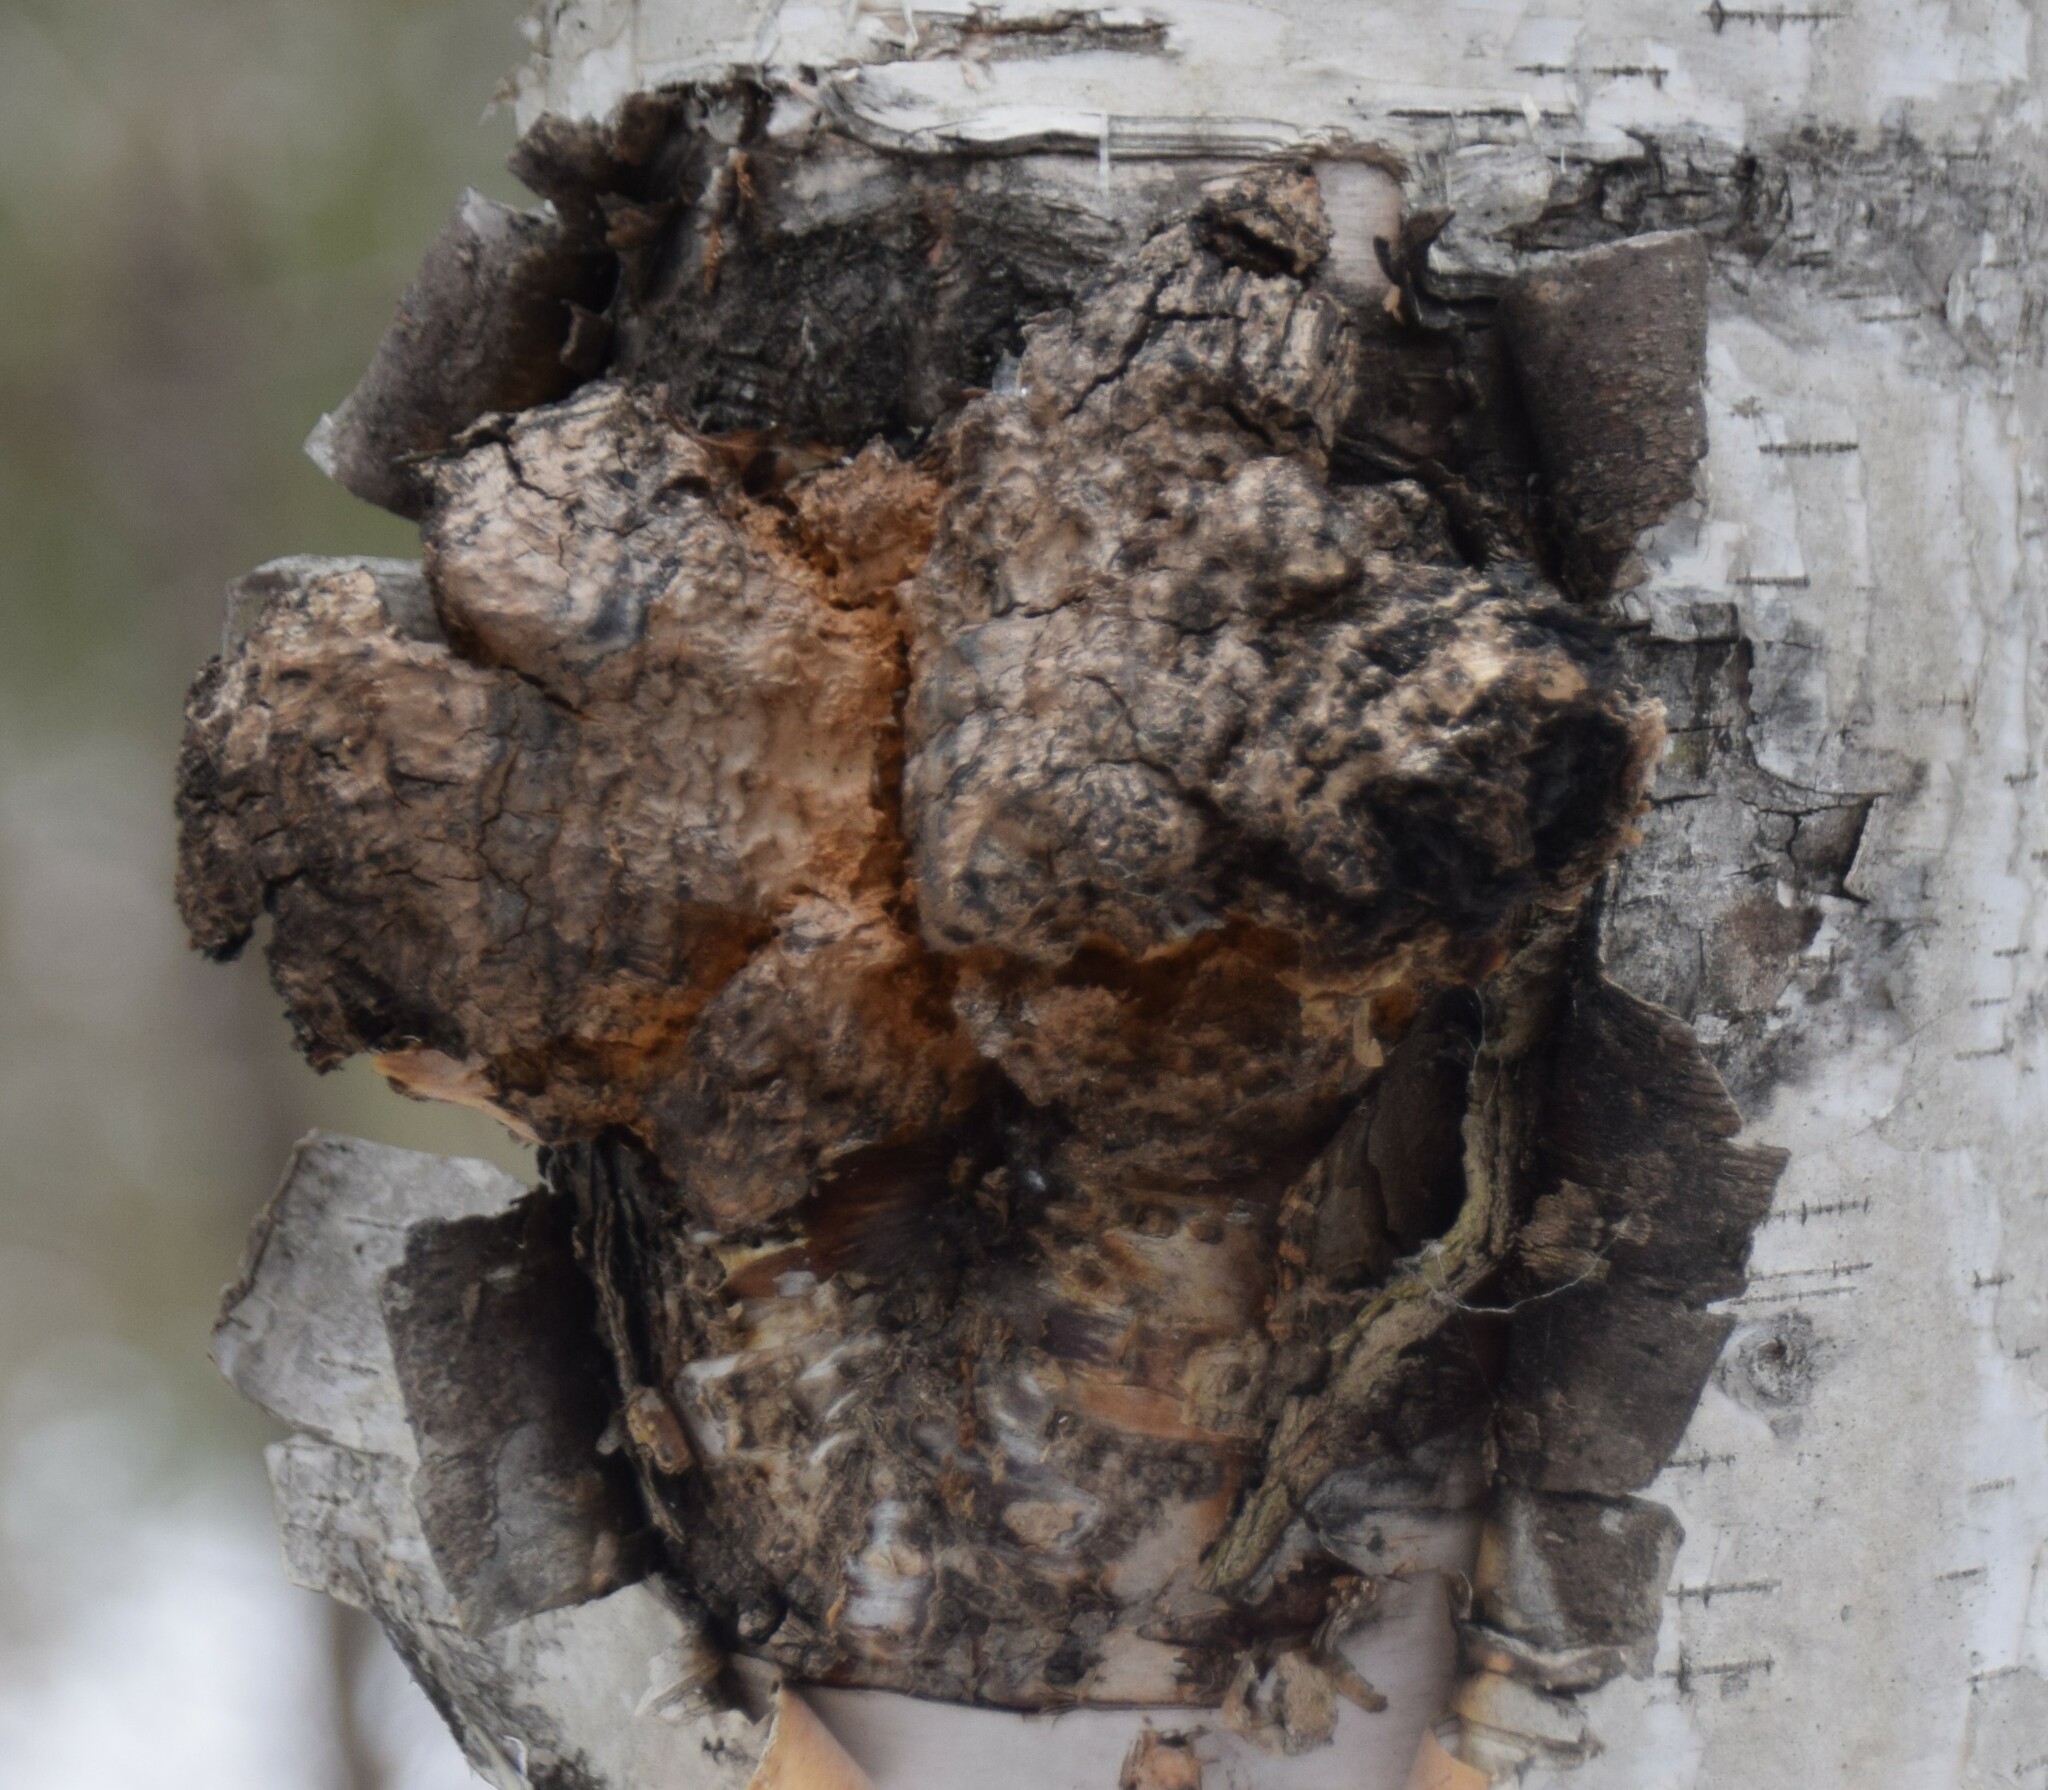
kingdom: Fungi
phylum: Basidiomycota
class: Agaricomycetes
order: Hymenochaetales
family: Hymenochaetaceae
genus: Inonotus
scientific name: Inonotus obliquus
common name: Chaga
